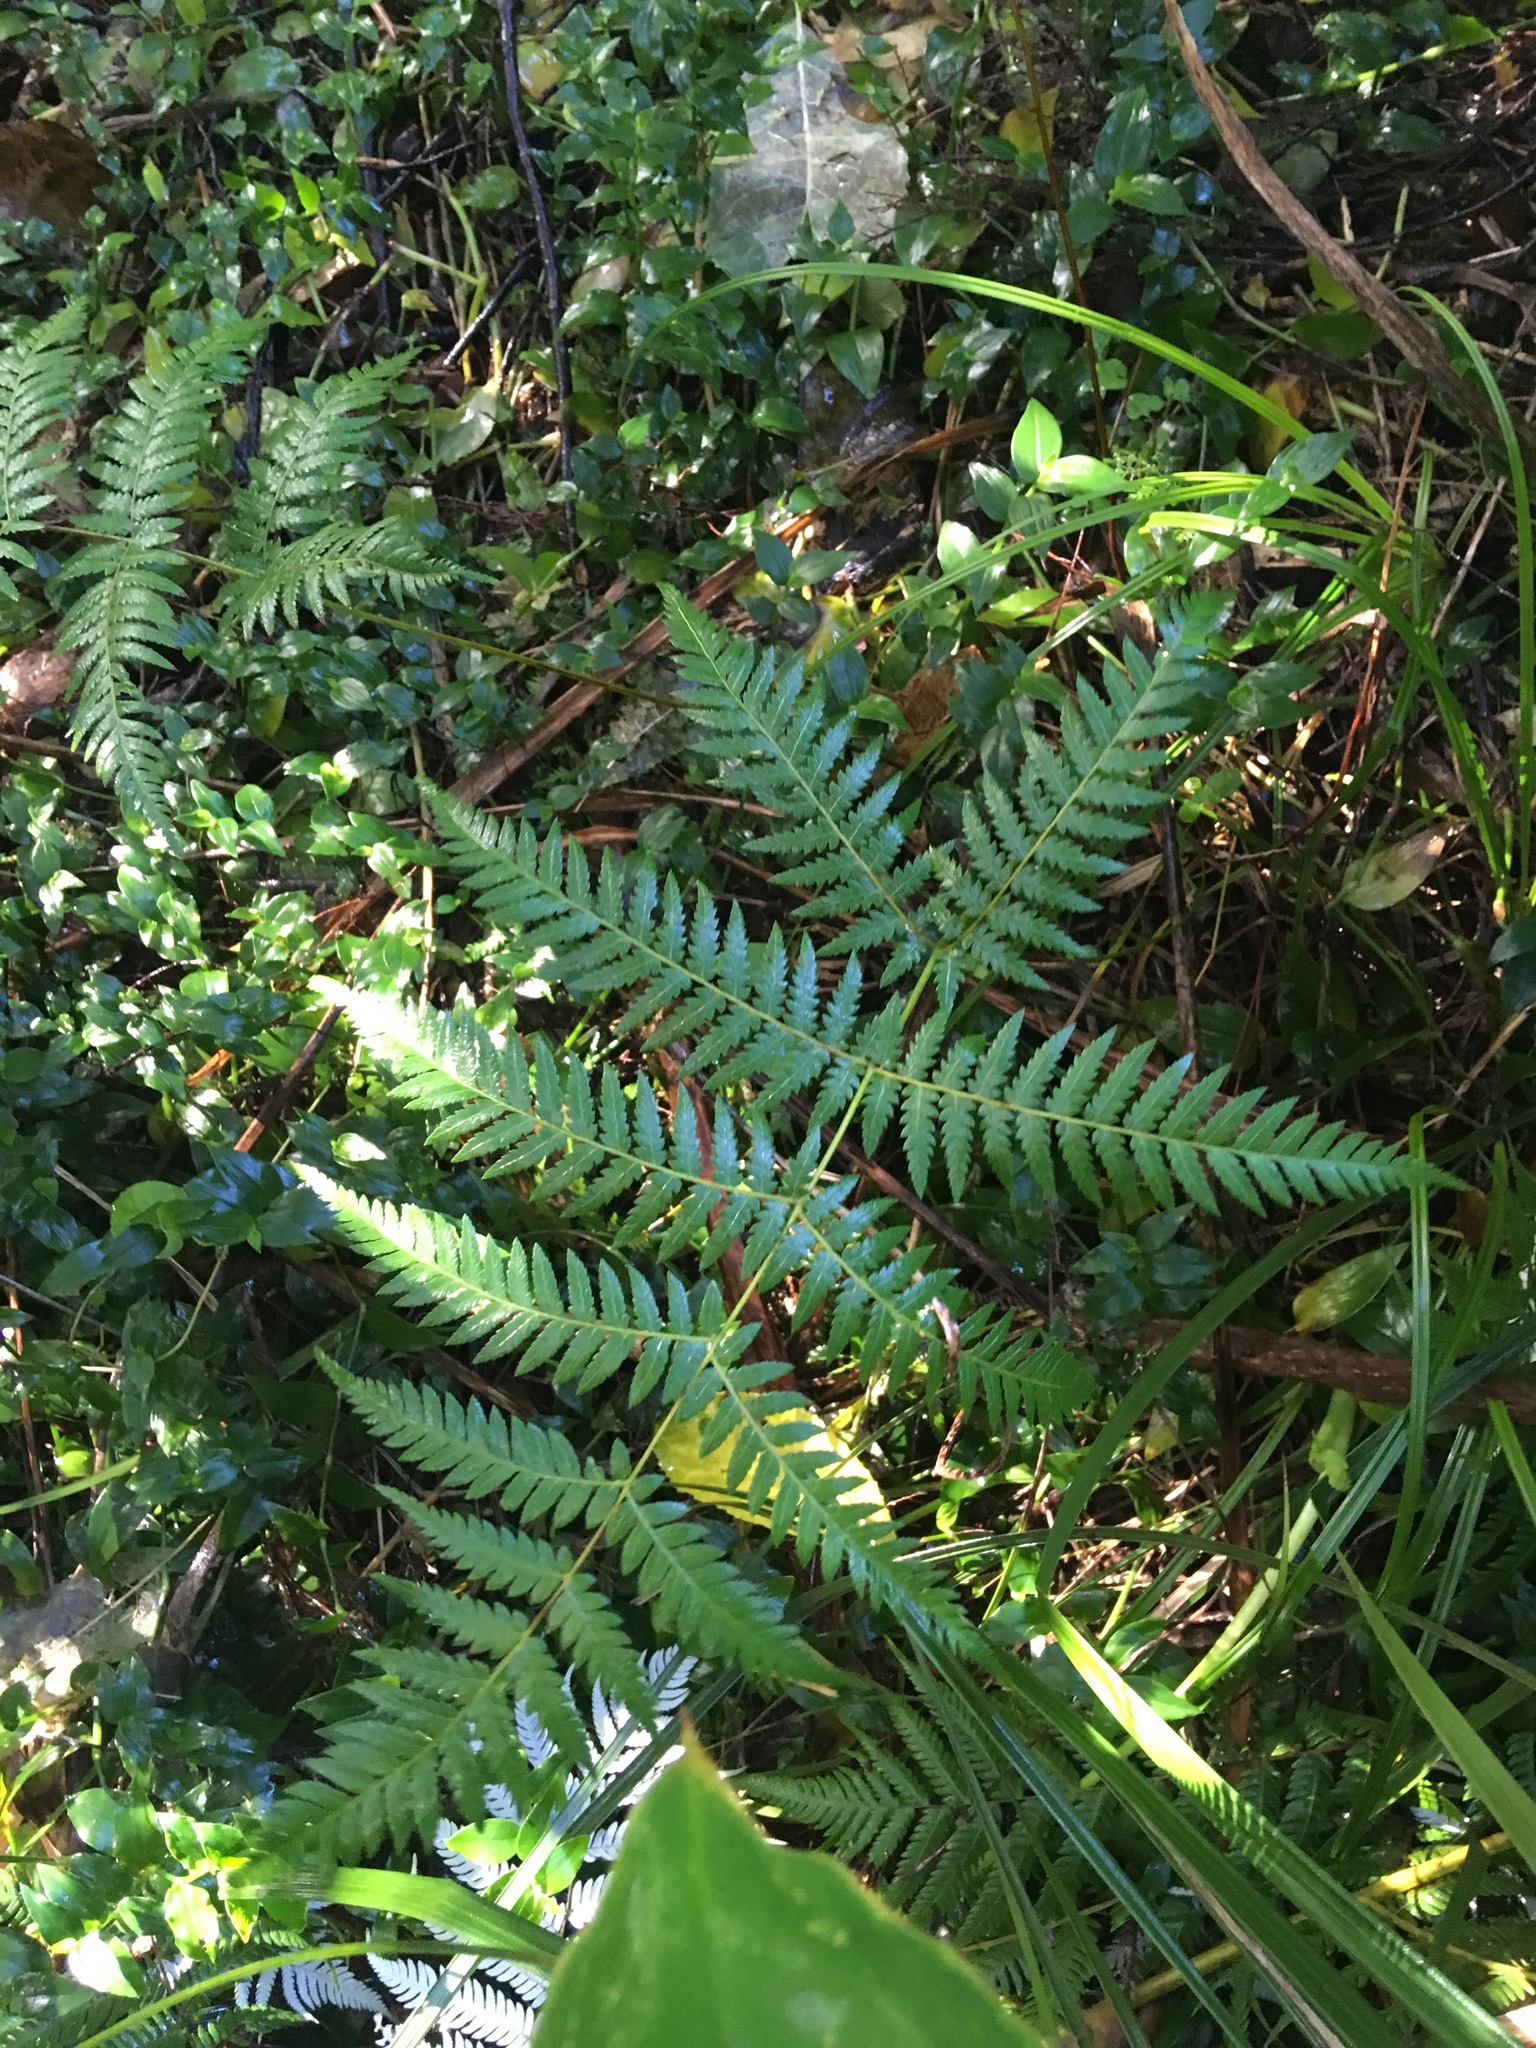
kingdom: Plantae
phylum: Tracheophyta
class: Polypodiopsida
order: Cyatheales
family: Cyatheaceae
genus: Alsophila
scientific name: Alsophila dealbata
